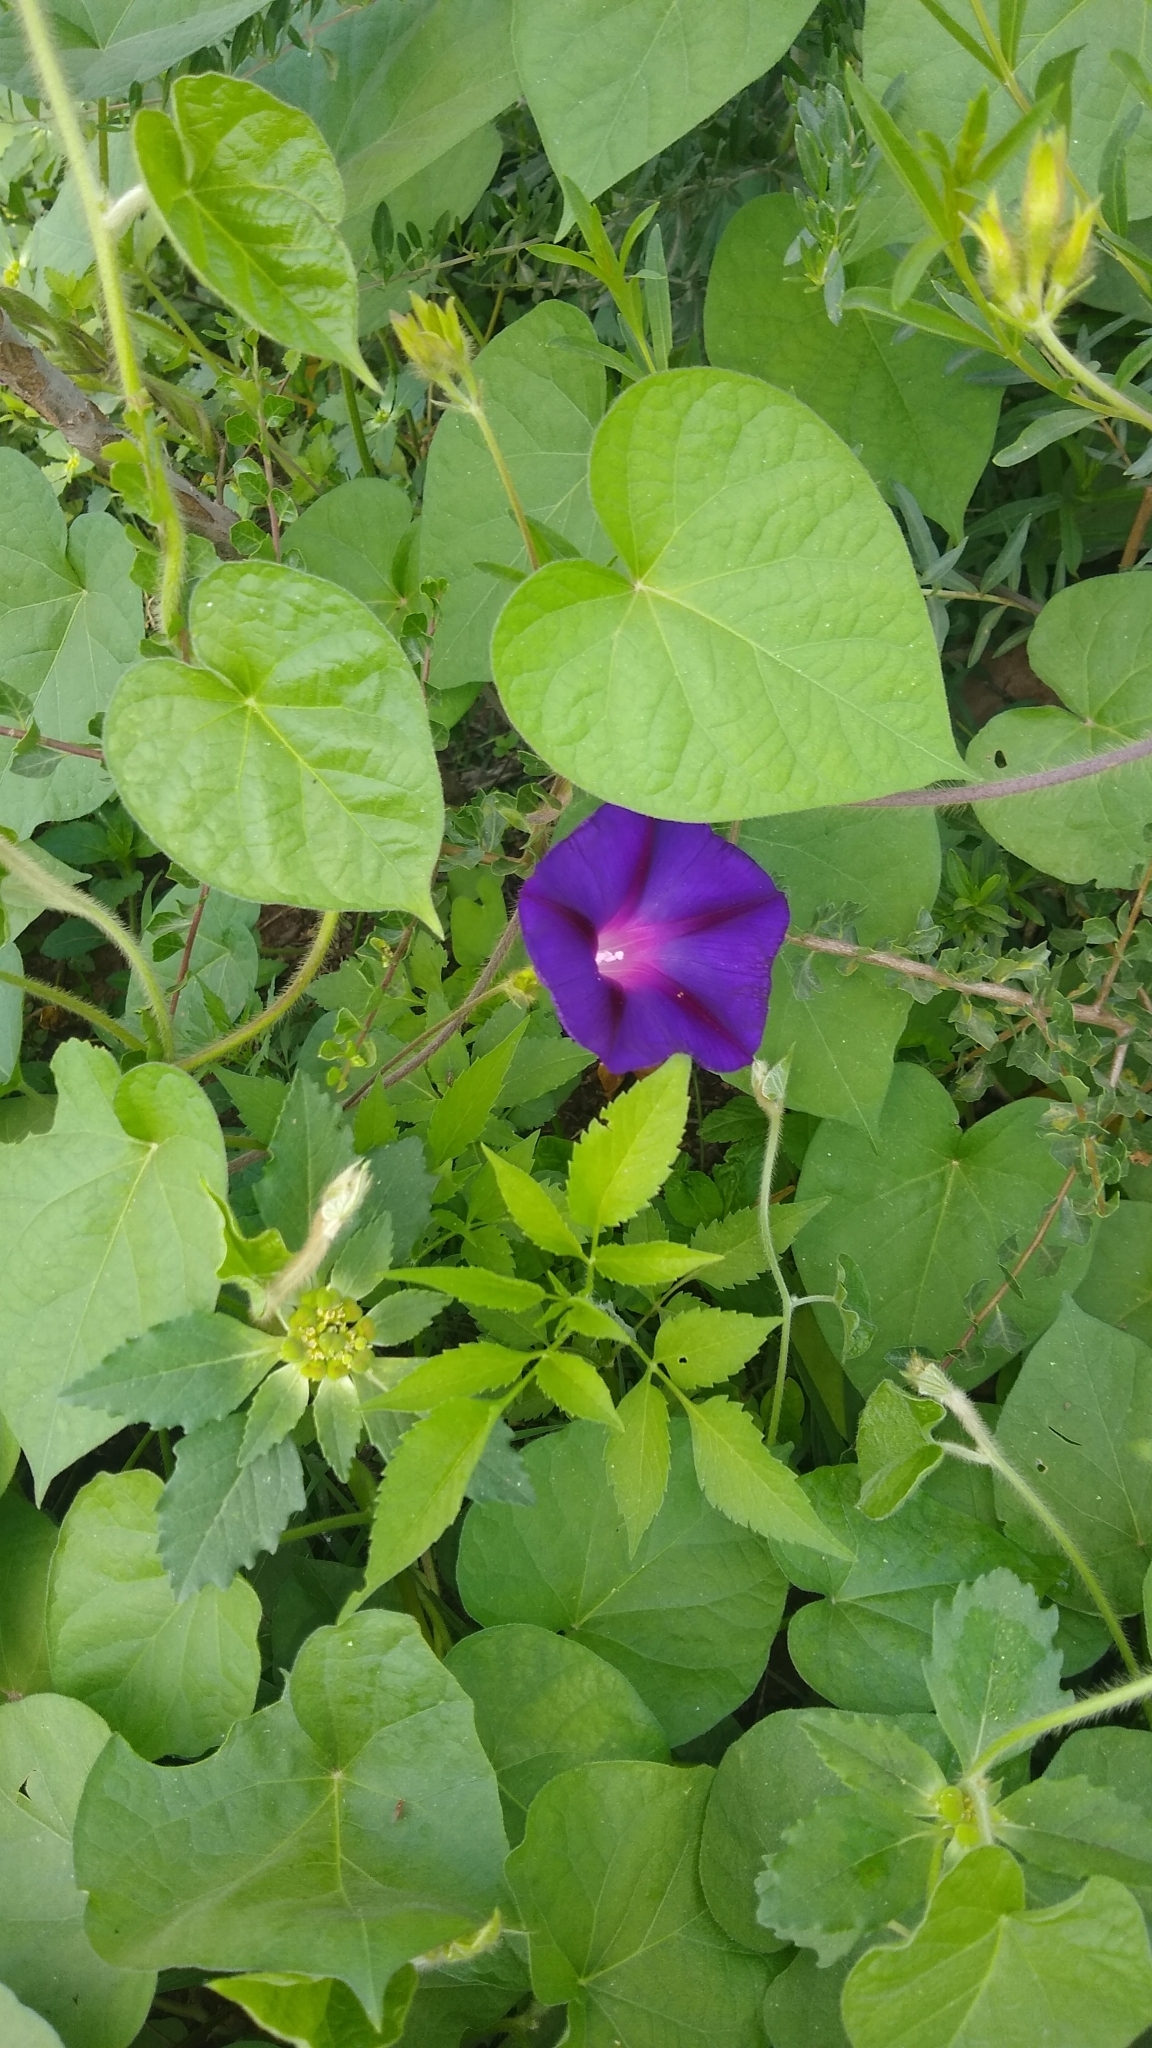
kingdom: Plantae
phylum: Tracheophyta
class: Magnoliopsida
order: Solanales
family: Convolvulaceae
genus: Ipomoea
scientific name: Ipomoea purpurea
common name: Common morning-glory
